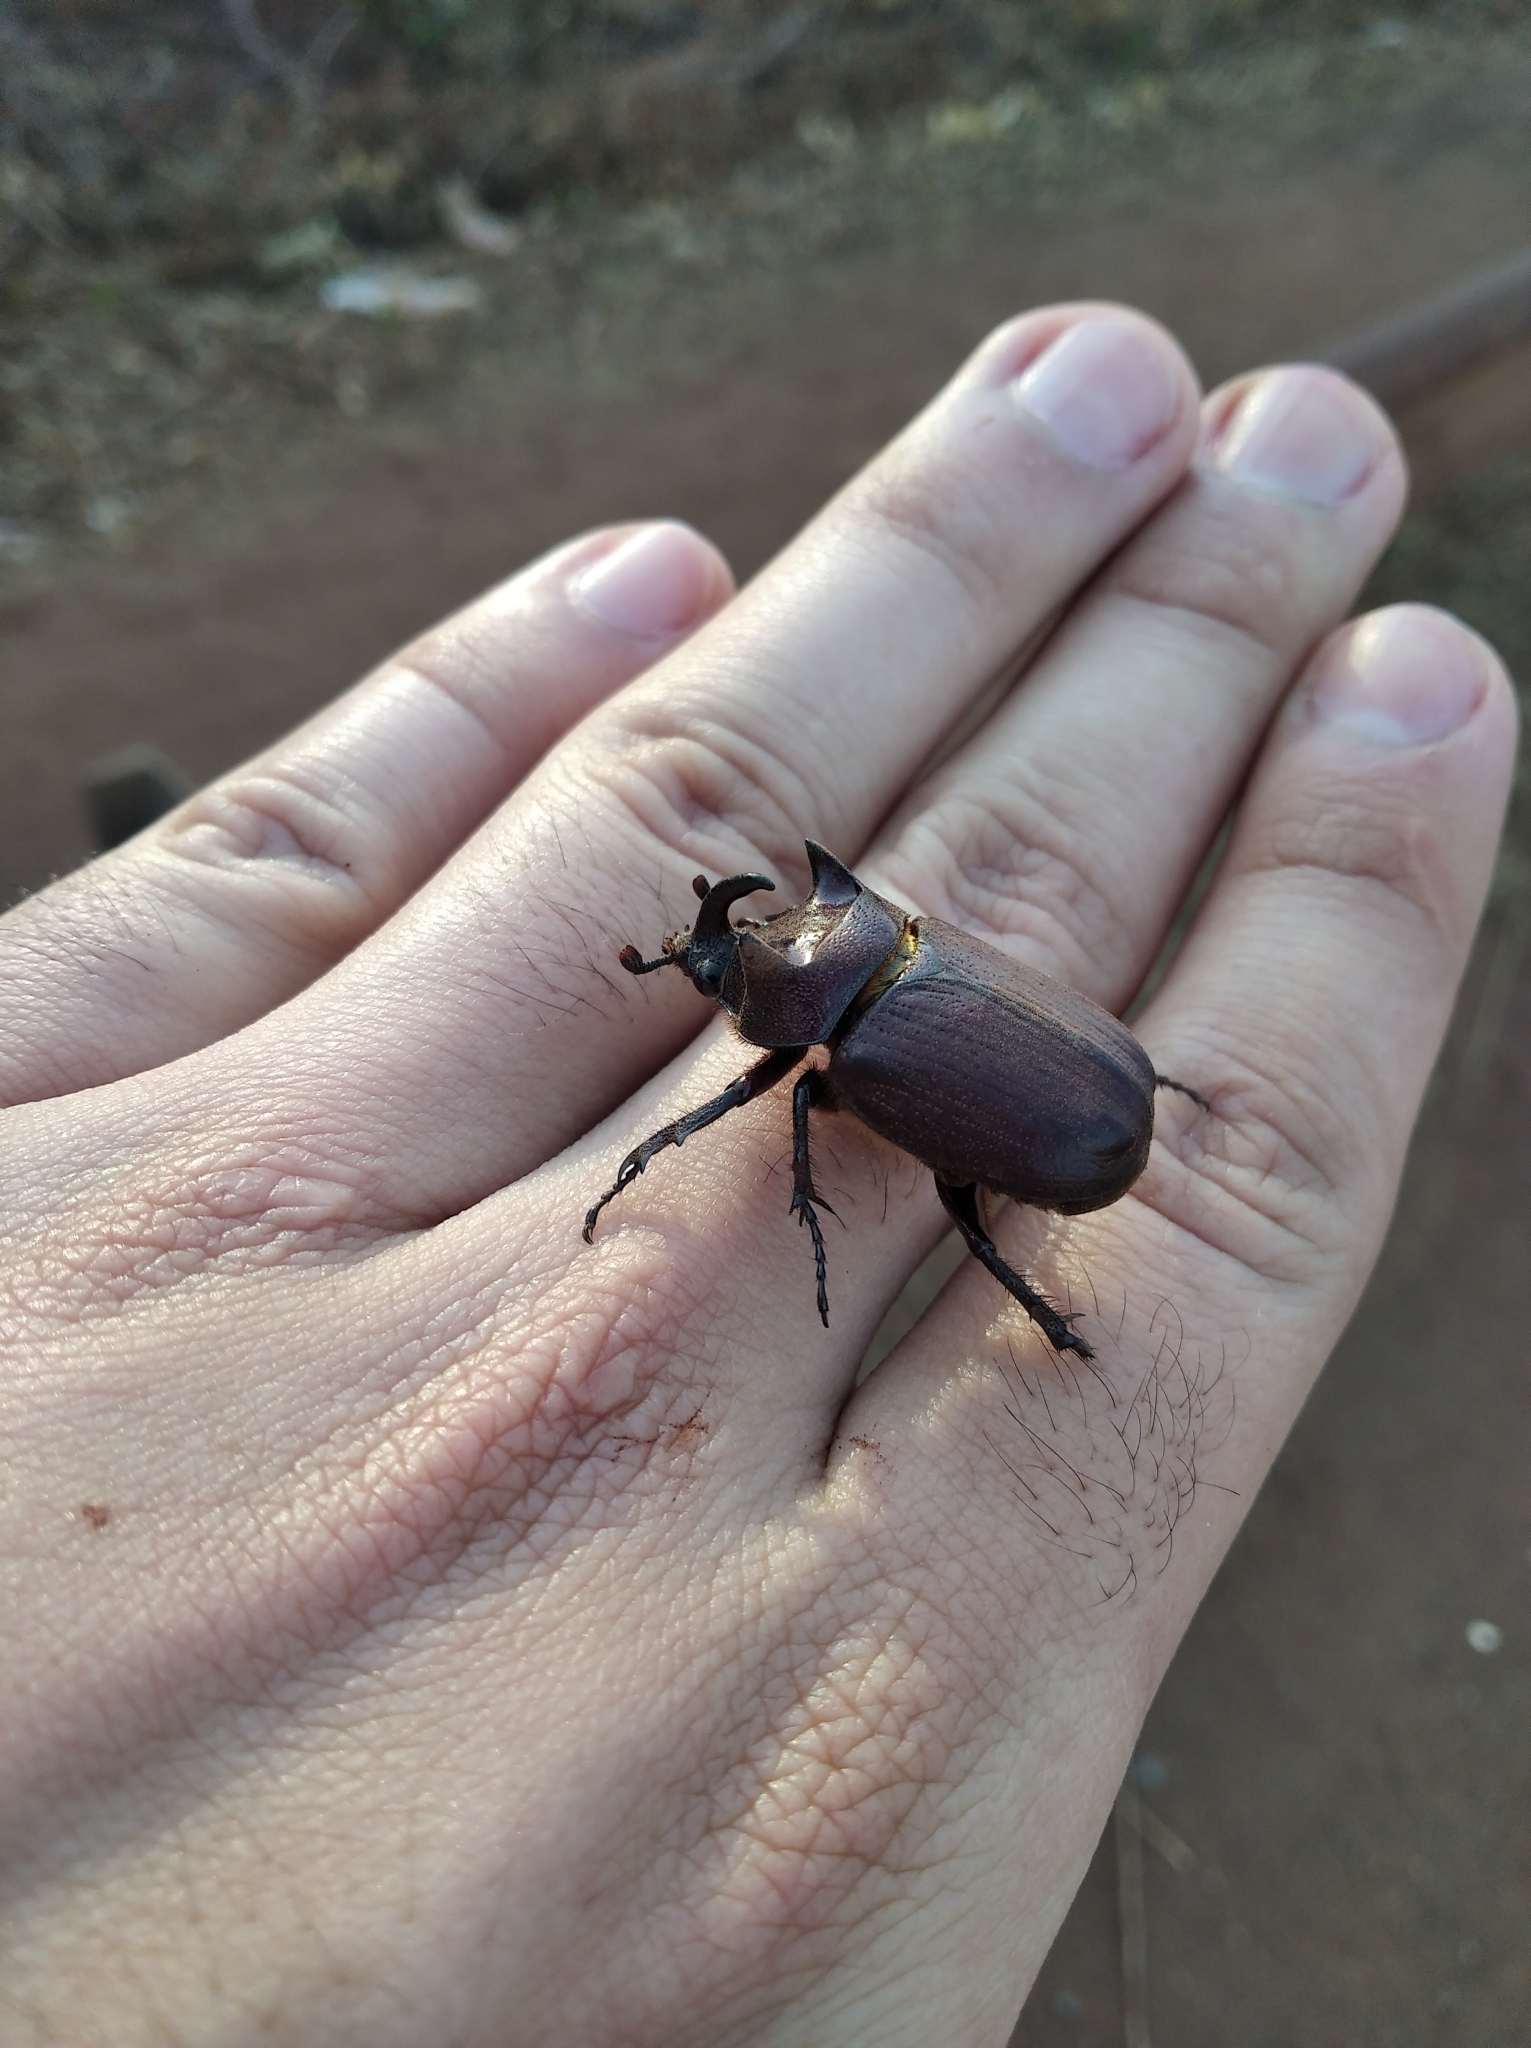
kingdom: Animalia
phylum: Arthropoda
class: Insecta
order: Coleoptera
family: Scarabaeidae
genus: Coelosis
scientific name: Coelosis bicornis
